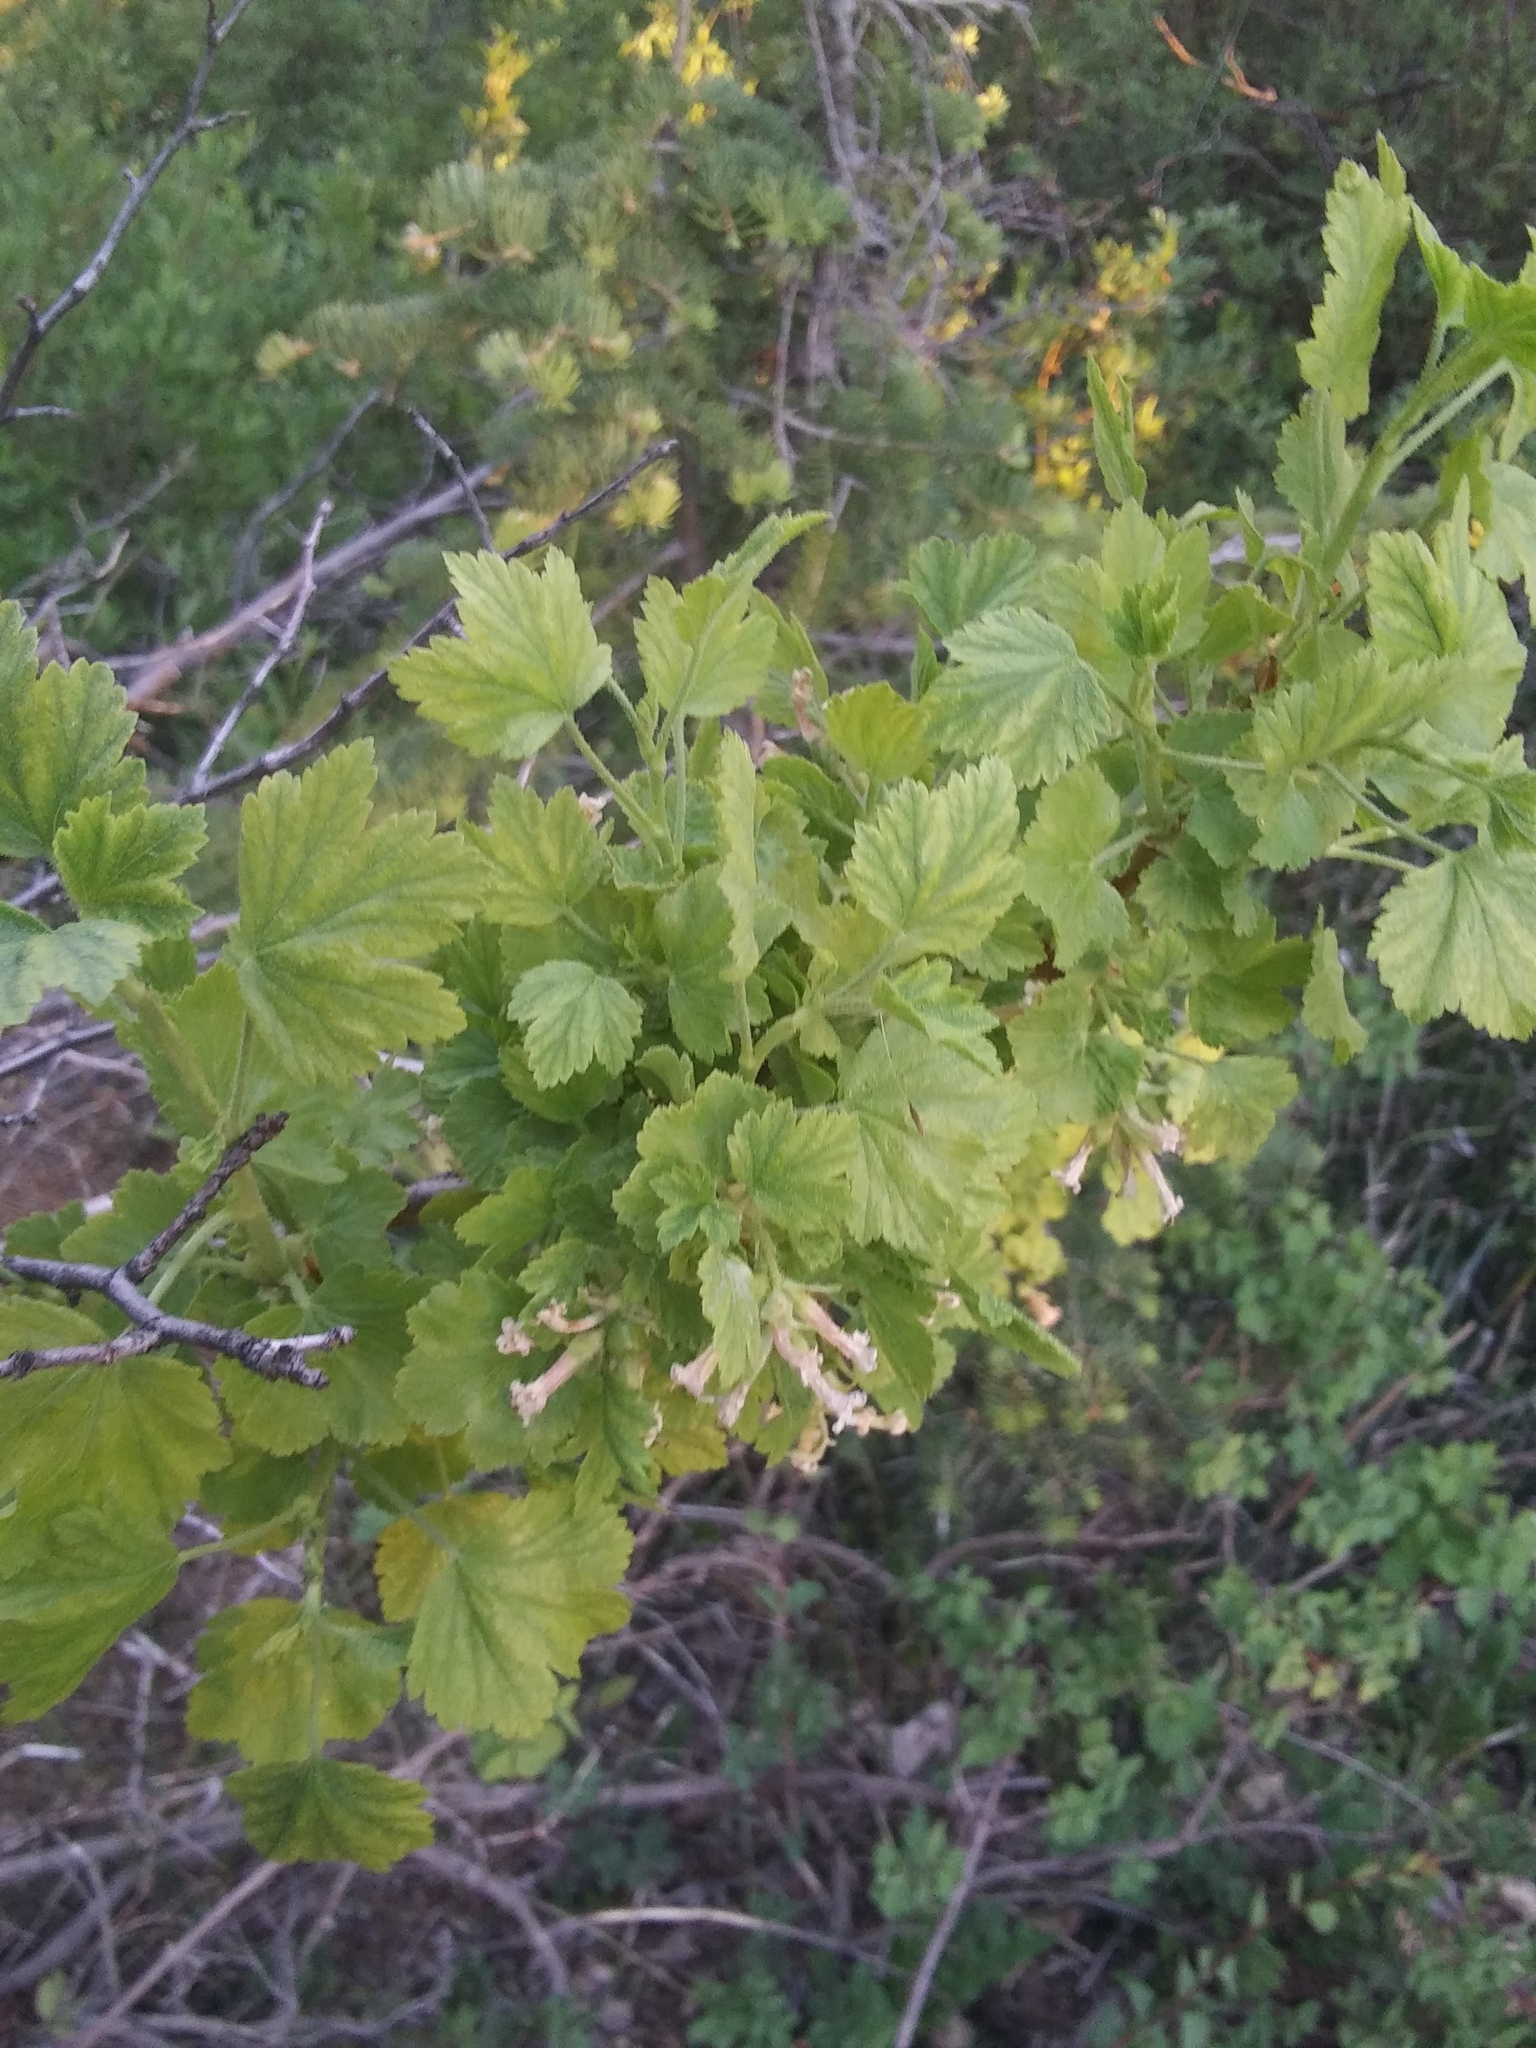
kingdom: Plantae
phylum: Tracheophyta
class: Magnoliopsida
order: Saxifragales
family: Grossulariaceae
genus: Ribes
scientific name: Ribes cereum
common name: Wax currant
